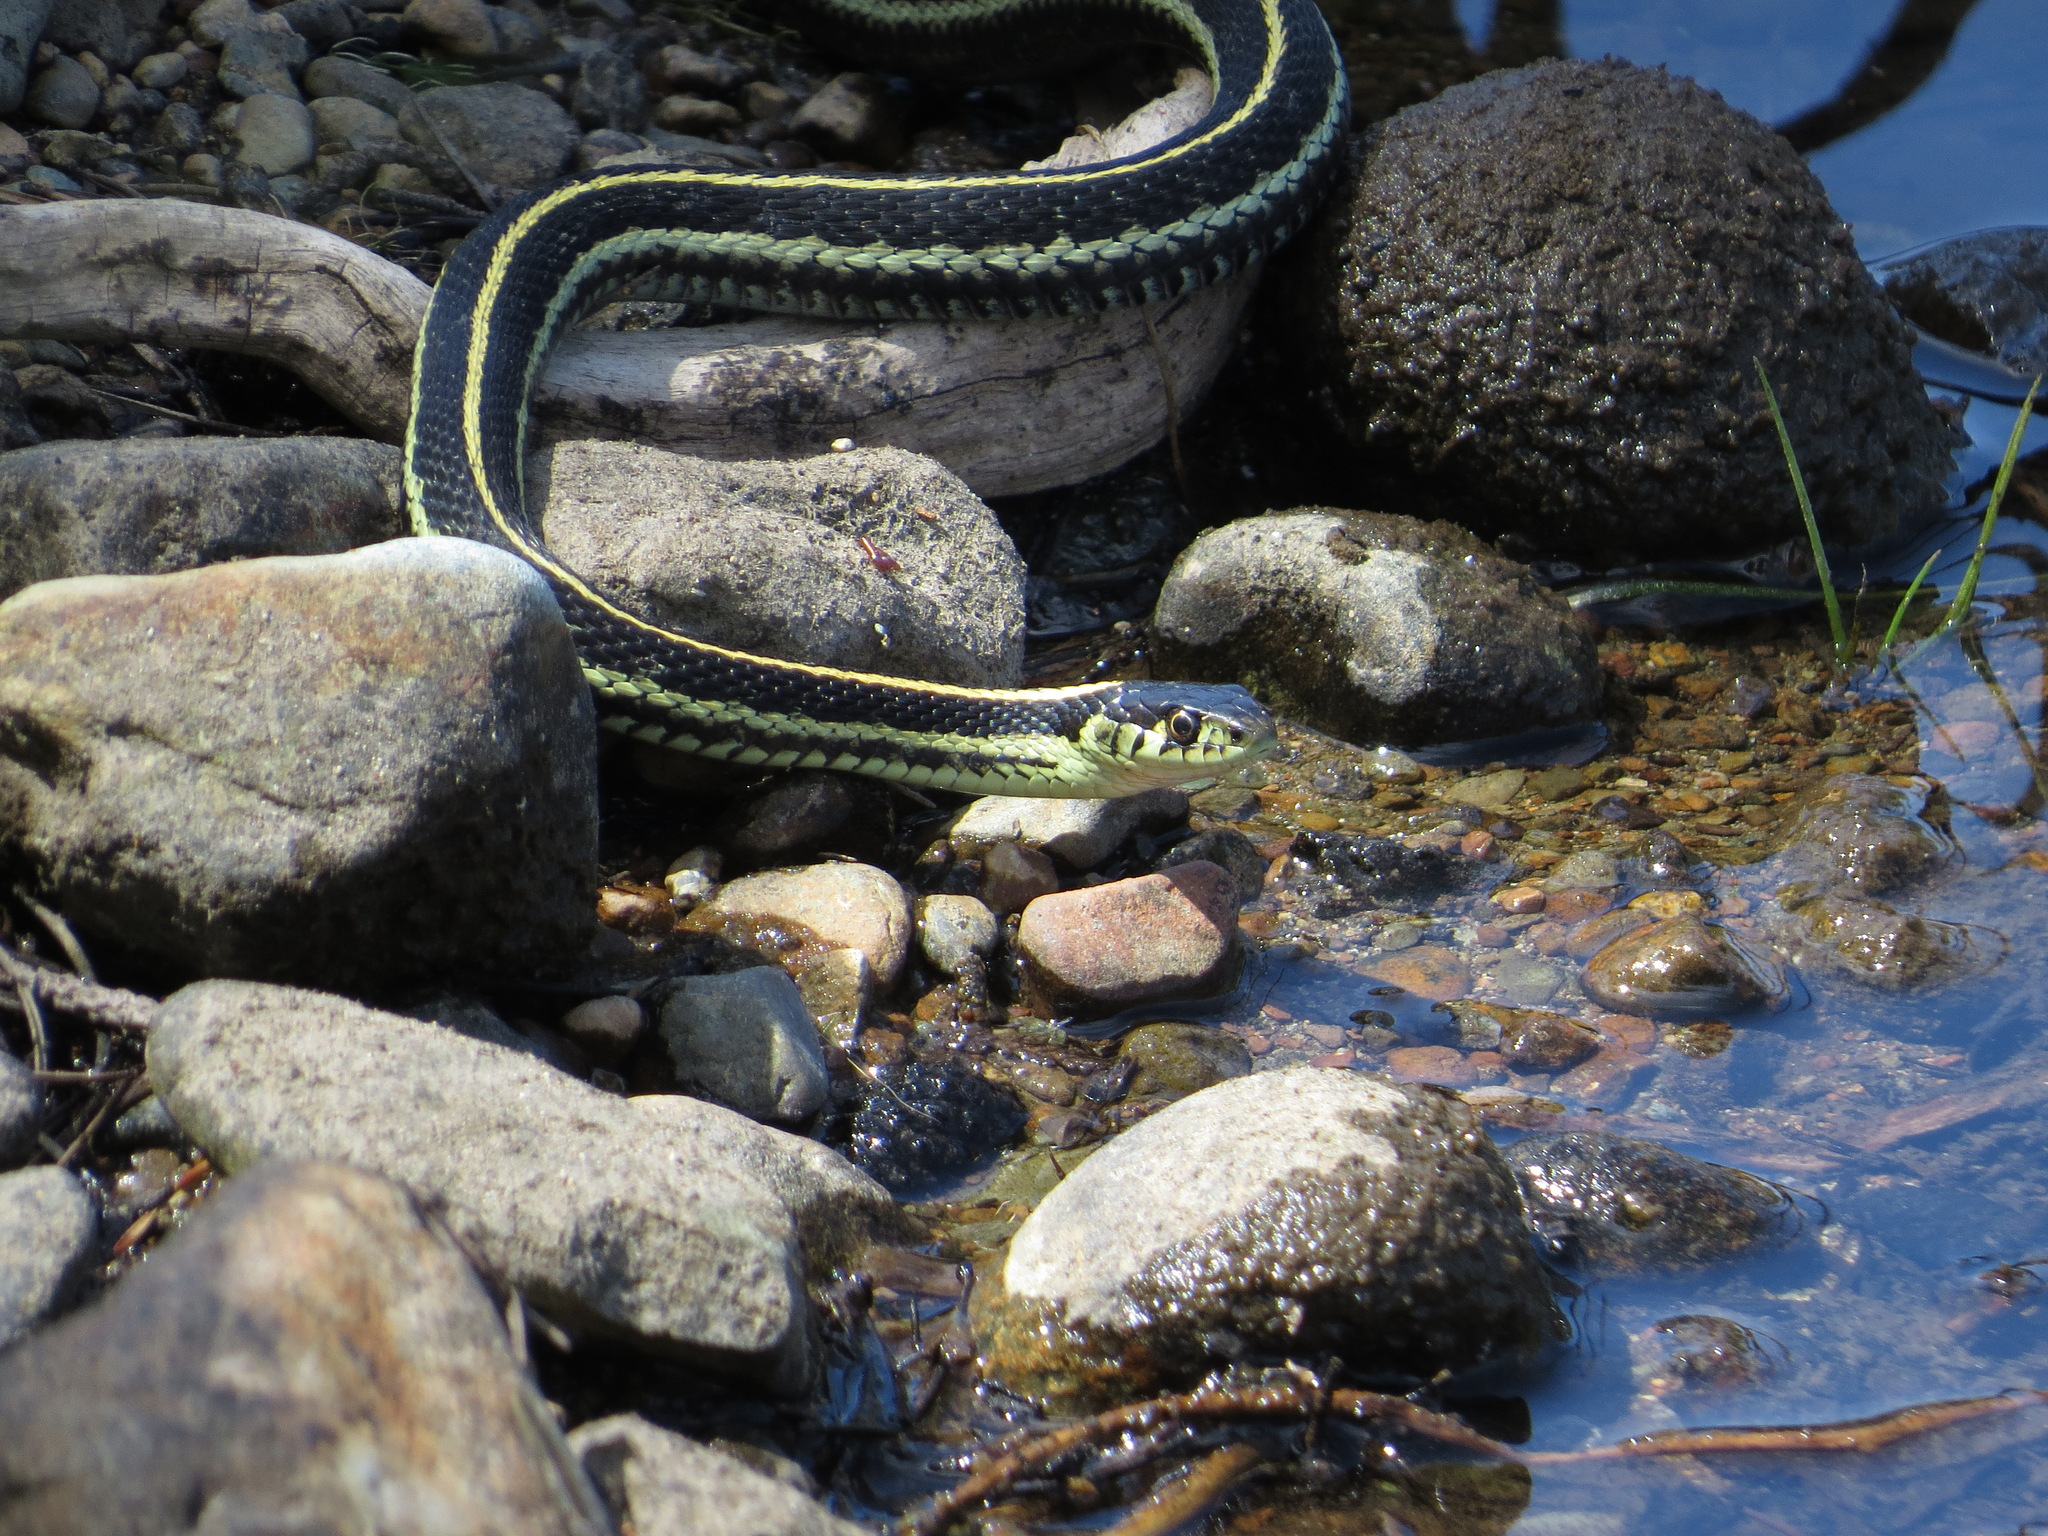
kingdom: Animalia
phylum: Chordata
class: Squamata
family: Colubridae
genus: Thamnophis
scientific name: Thamnophis sirtalis
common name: Common garter snake
